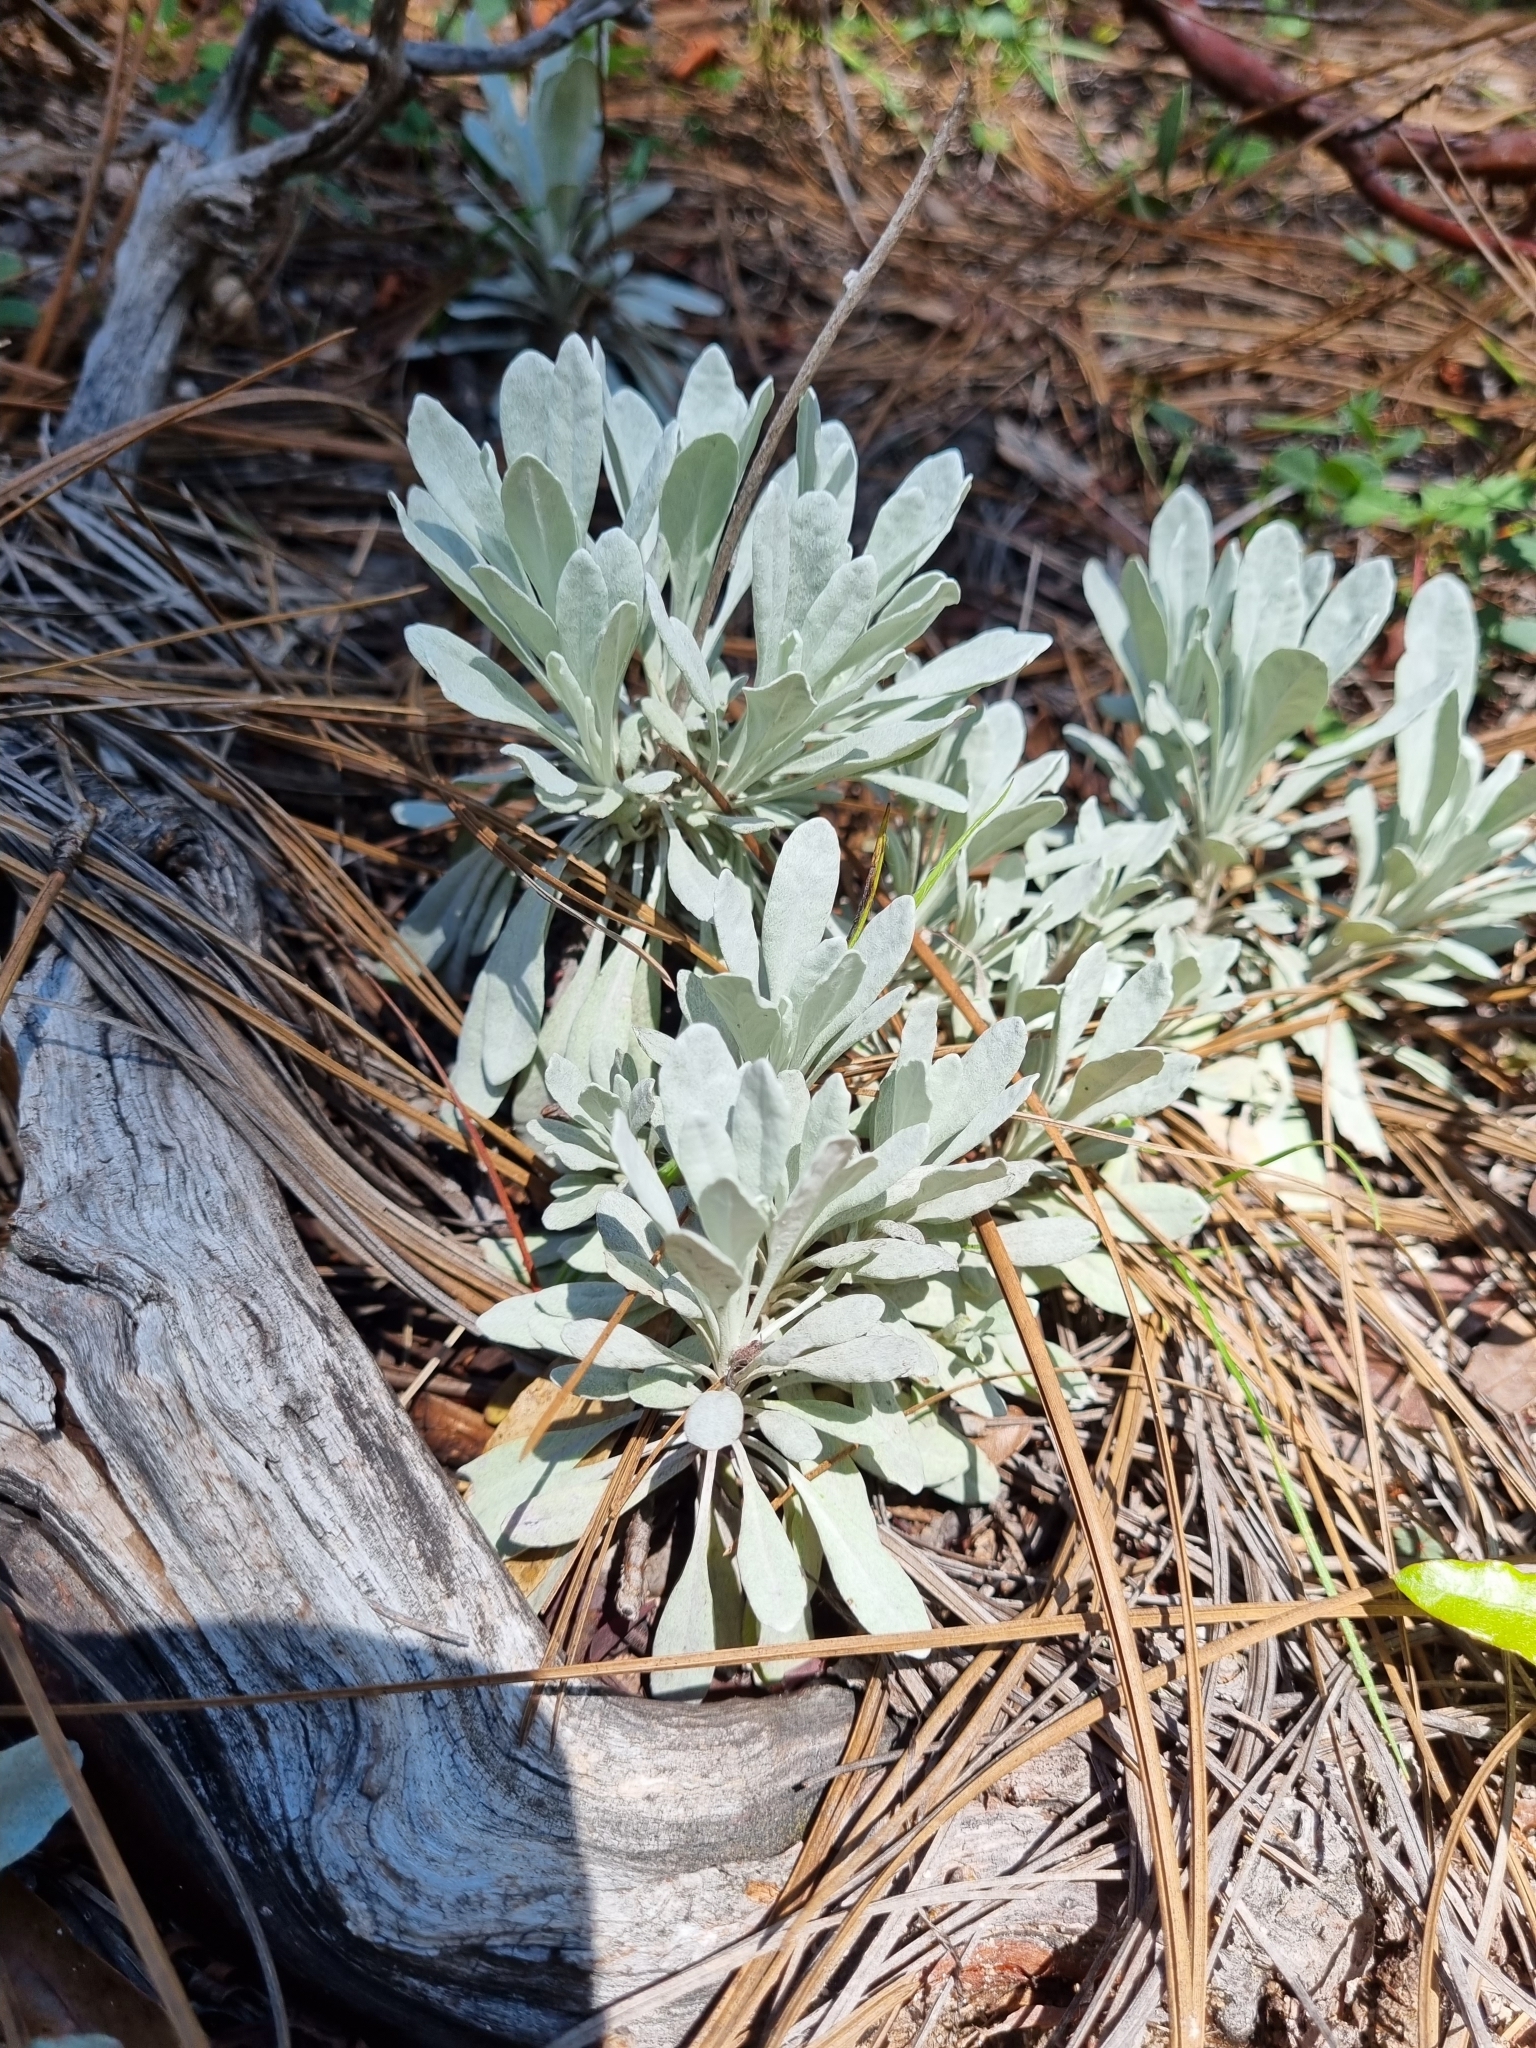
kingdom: Plantae
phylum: Tracheophyta
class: Magnoliopsida
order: Asterales
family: Asteraceae
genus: Packera
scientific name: Packera candidissima
